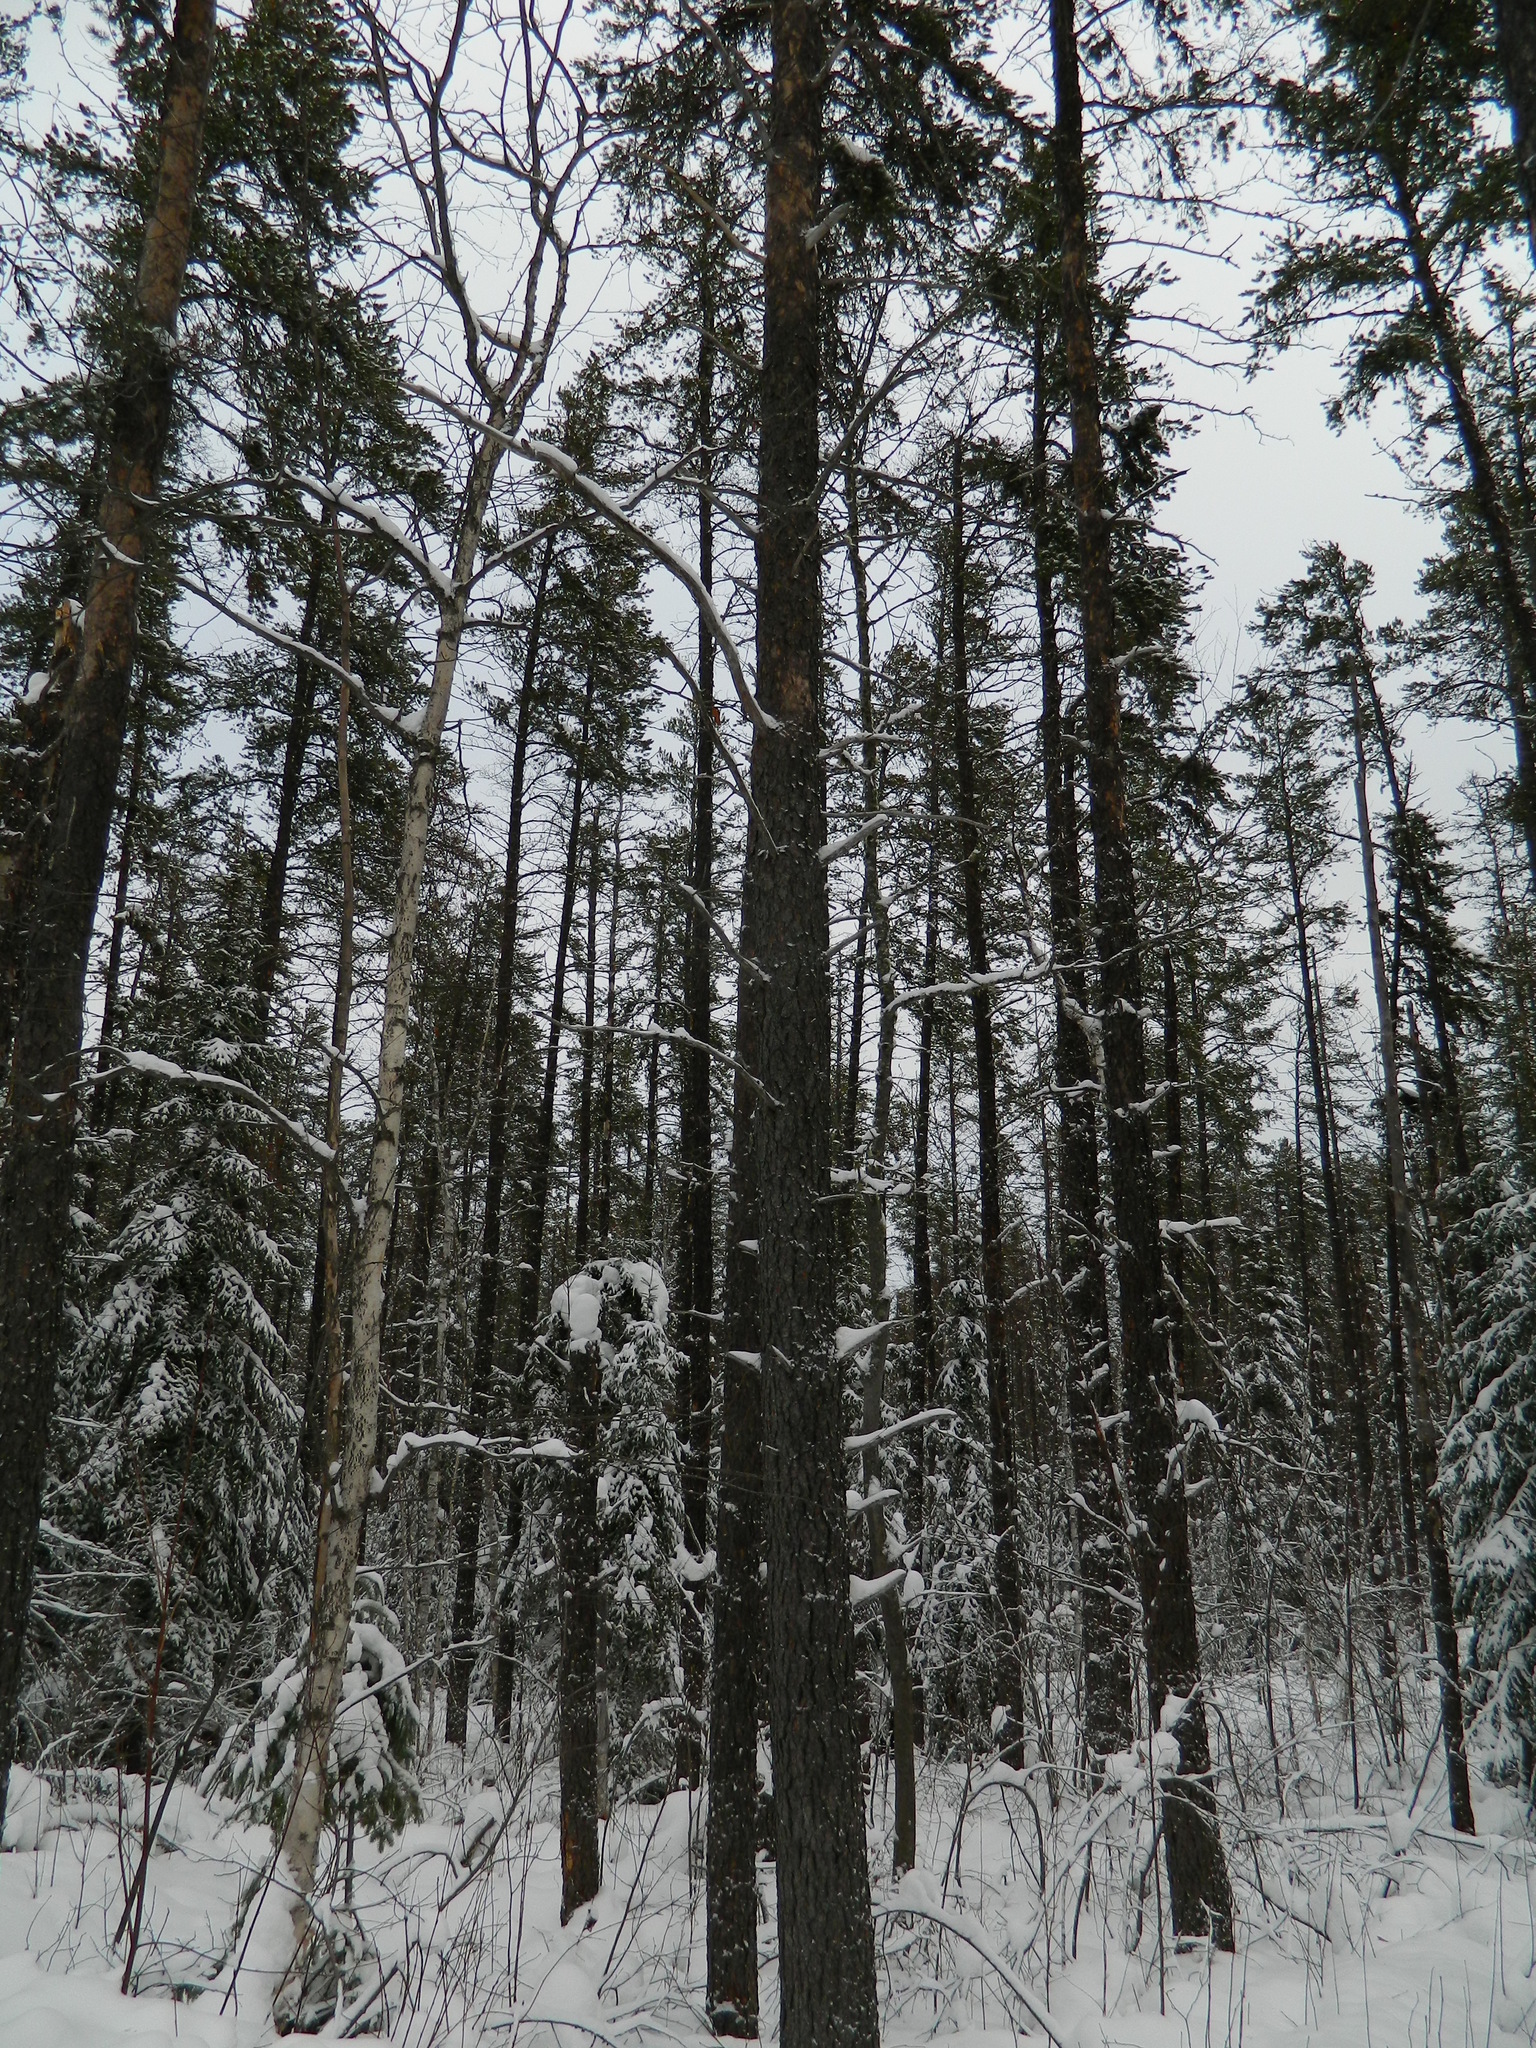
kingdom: Plantae
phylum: Tracheophyta
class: Pinopsida
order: Pinales
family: Pinaceae
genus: Pinus
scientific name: Pinus banksiana
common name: Jack pine
